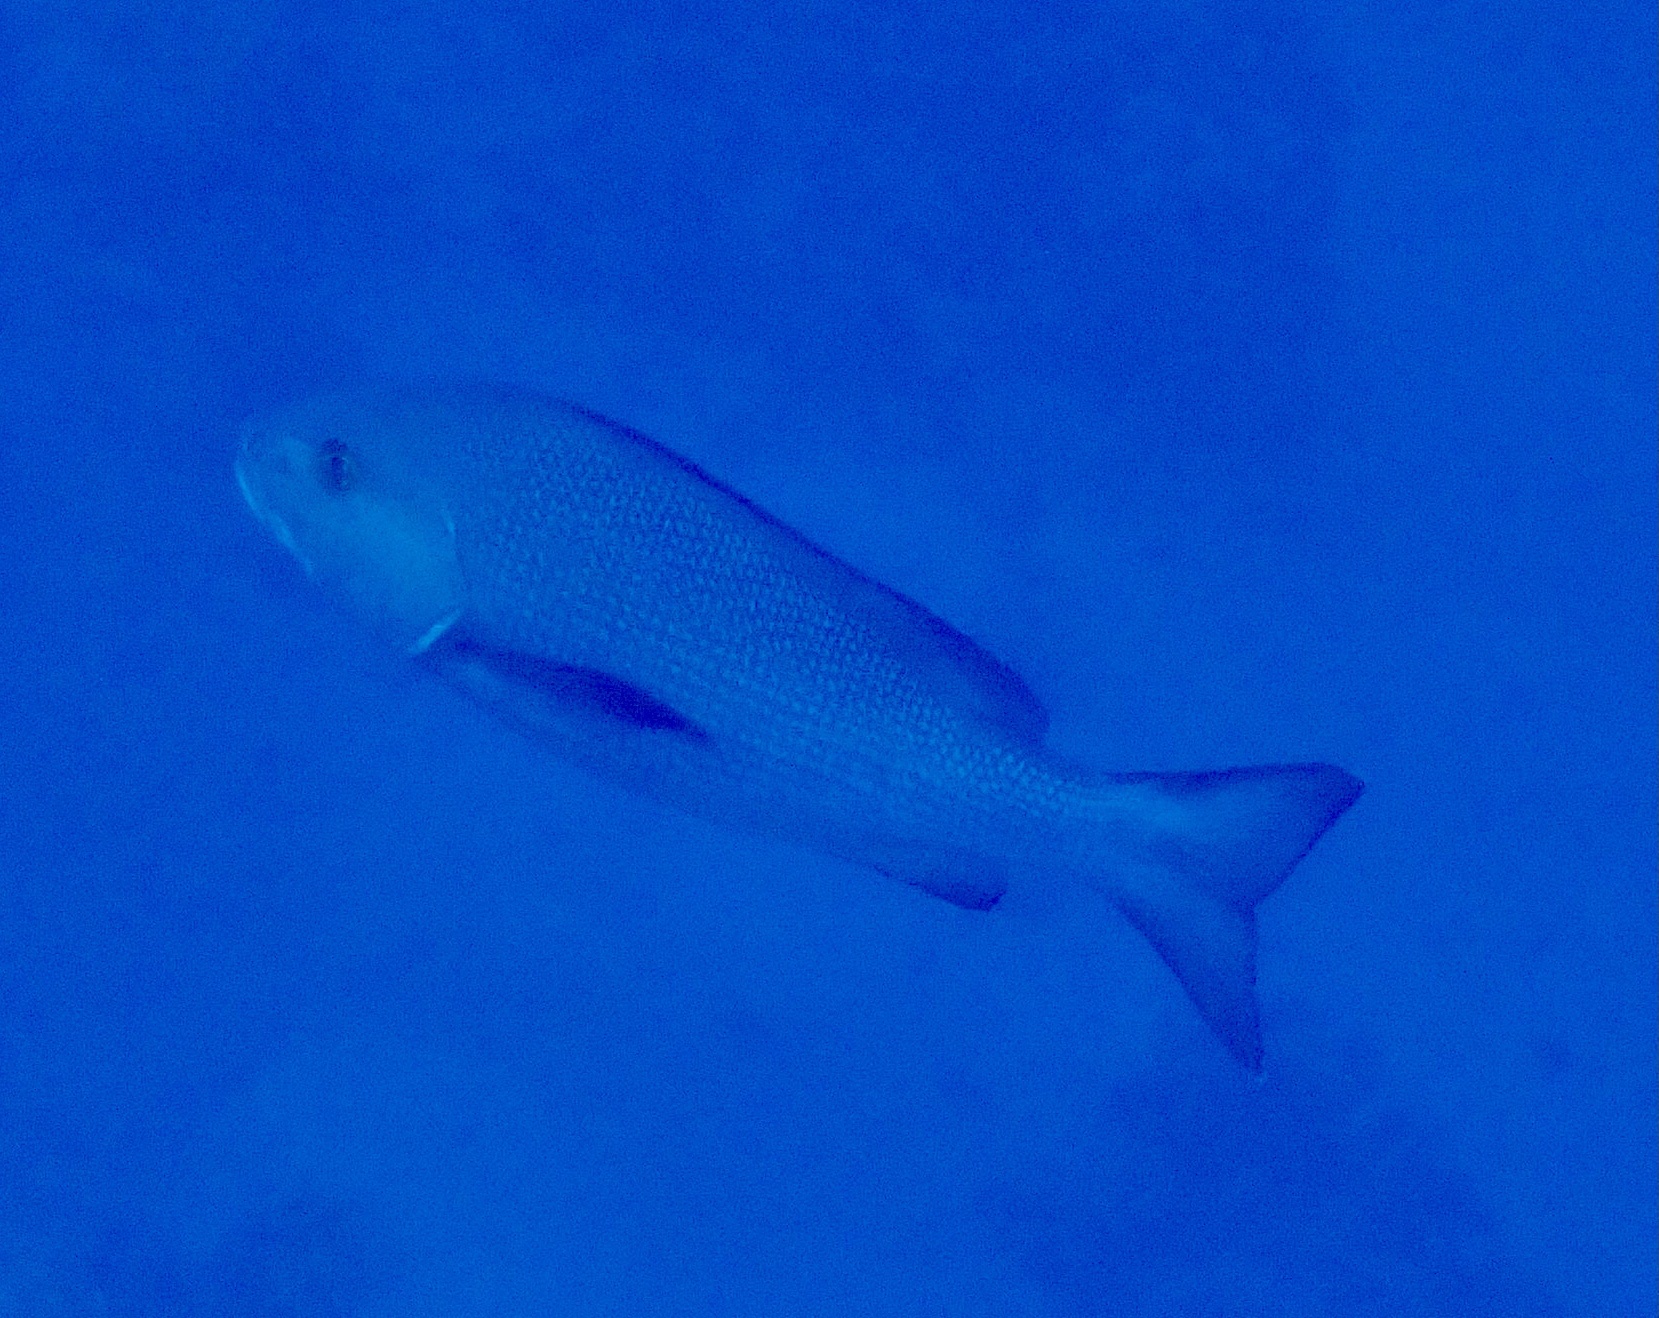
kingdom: Animalia
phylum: Chordata
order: Perciformes
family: Lutjanidae
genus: Lutjanus
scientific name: Lutjanus bohar
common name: Red bass
